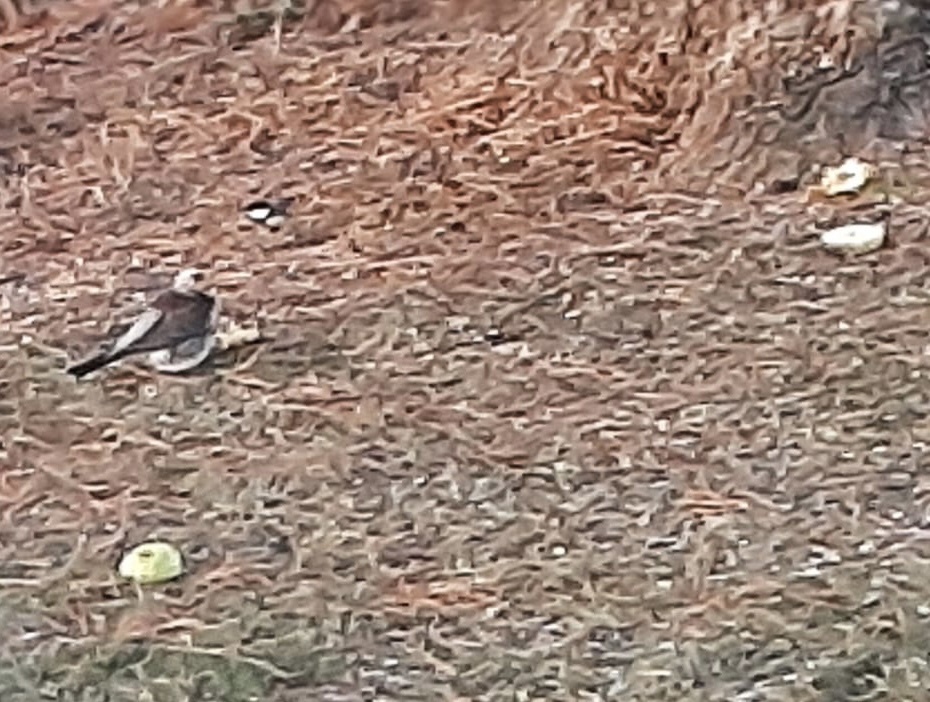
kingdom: Animalia
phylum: Chordata
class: Aves
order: Passeriformes
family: Turdidae
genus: Turdus
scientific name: Turdus pilaris
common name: Fieldfare
